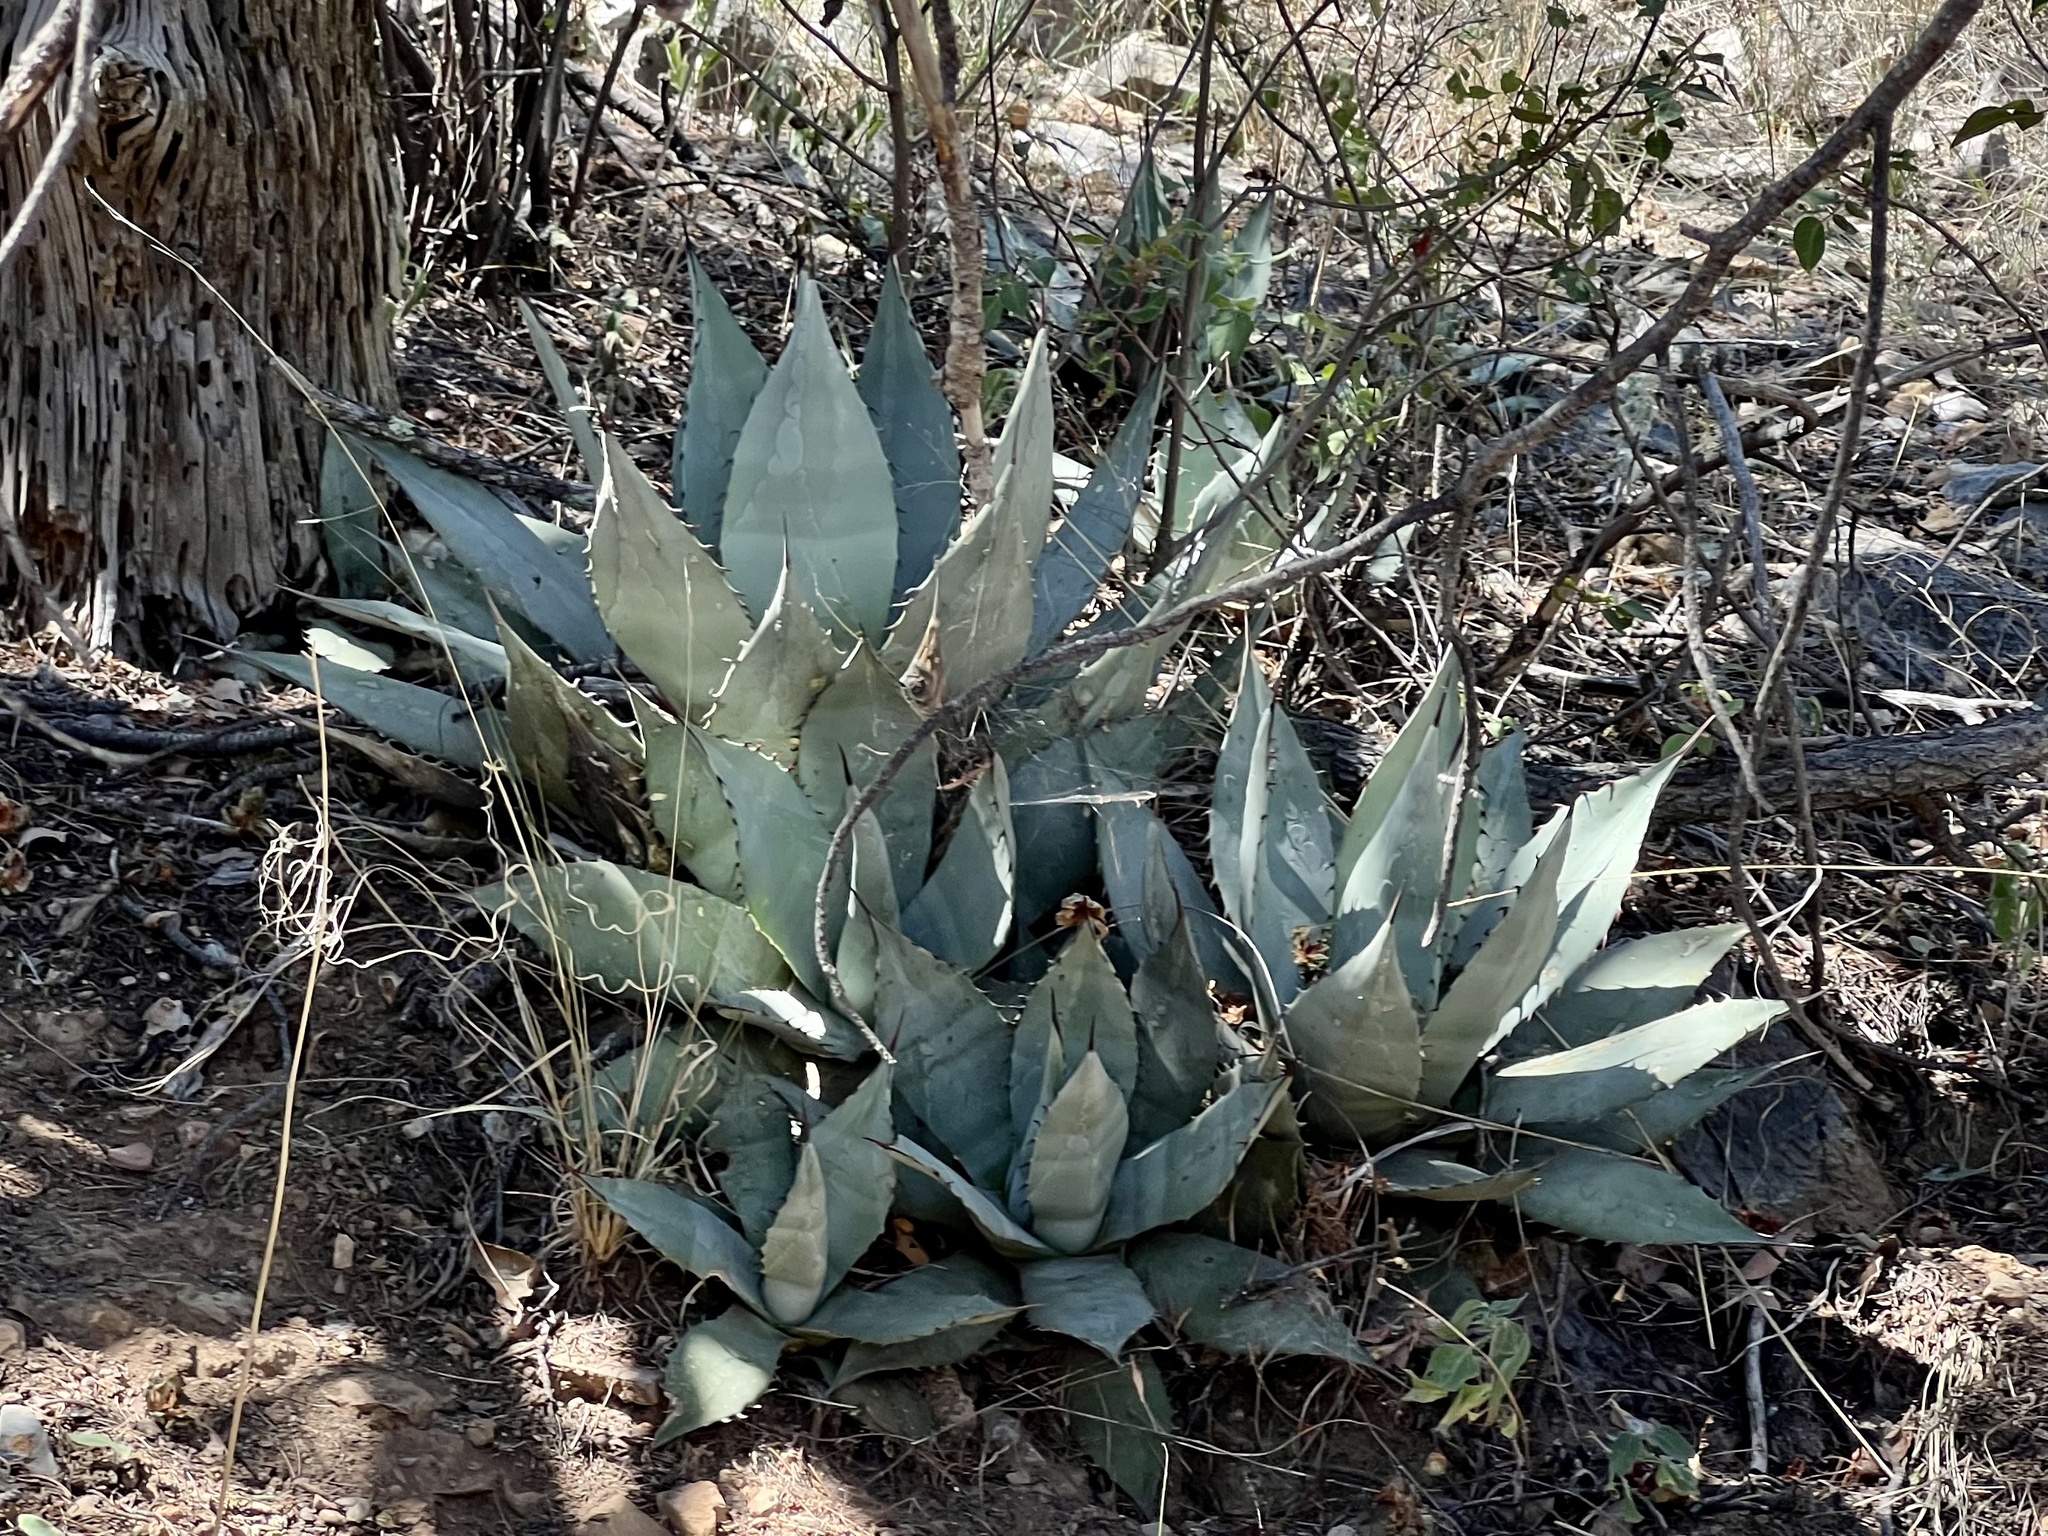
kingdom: Plantae
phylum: Tracheophyta
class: Liliopsida
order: Asparagales
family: Asparagaceae
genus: Agave
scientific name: Agave parryi
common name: Parry's agave
